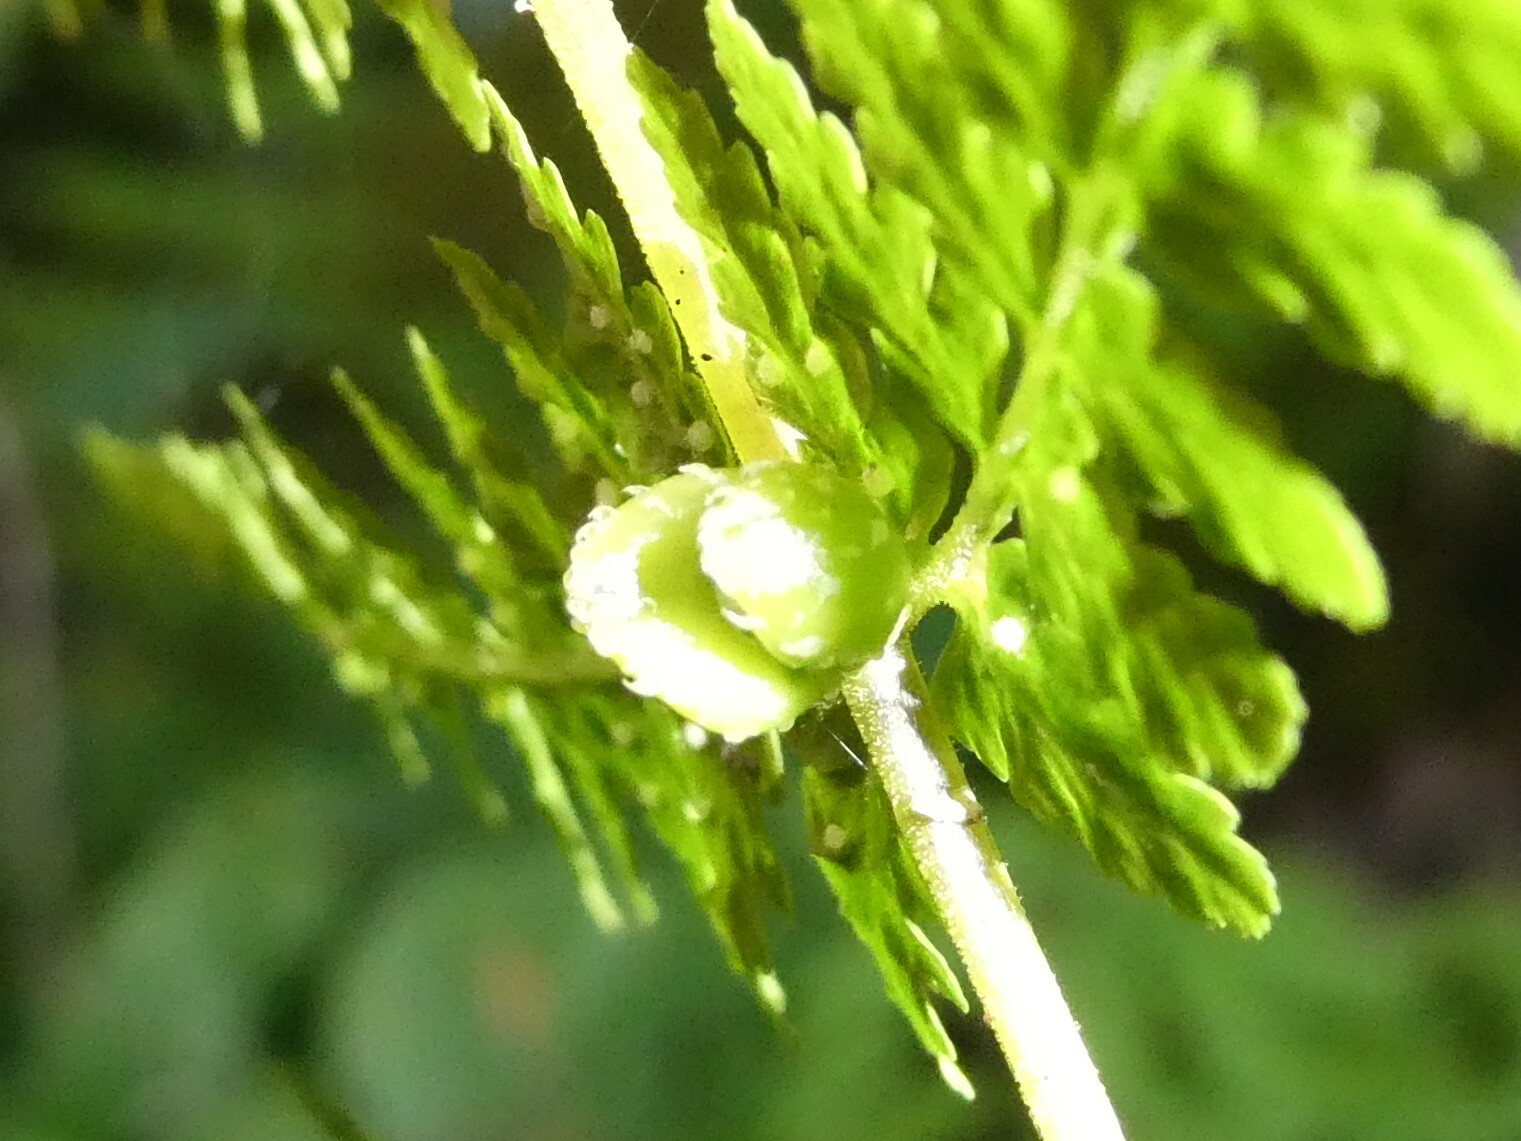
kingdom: Plantae
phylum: Tracheophyta
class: Polypodiopsida
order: Polypodiales
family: Cystopteridaceae
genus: Cystopteris
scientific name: Cystopteris bulbifera
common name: Bulblet bladder fern
